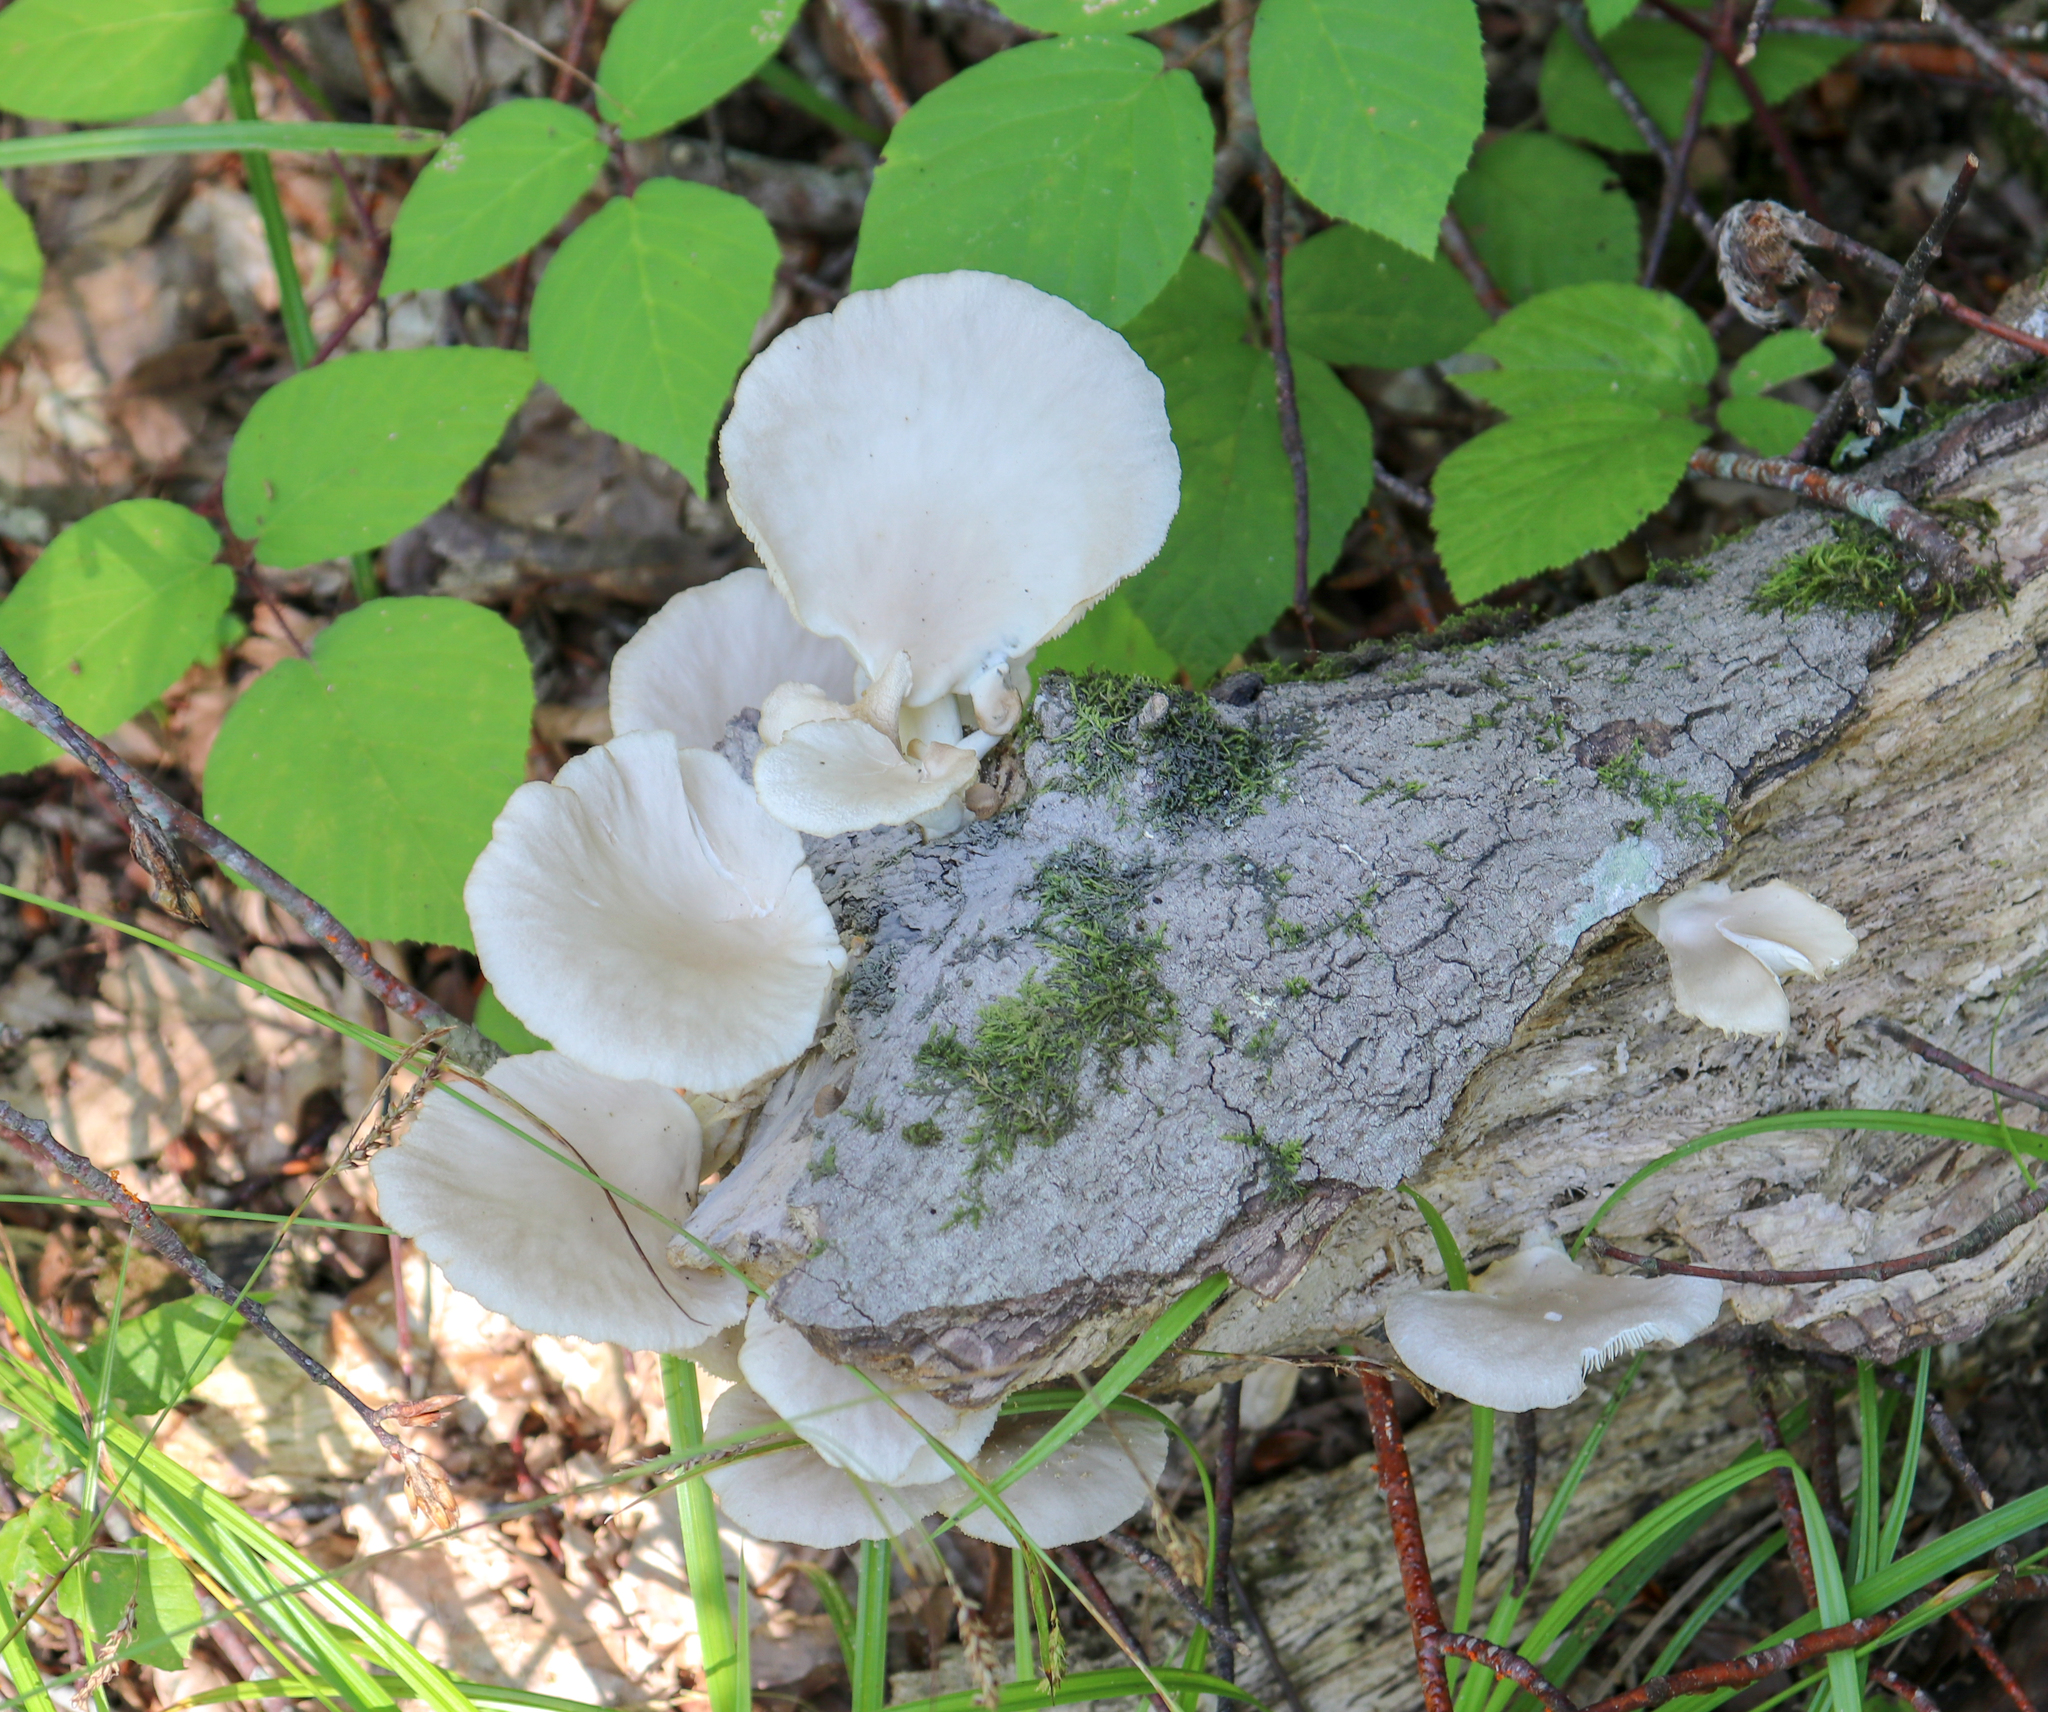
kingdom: Fungi
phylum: Basidiomycota
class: Agaricomycetes
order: Agaricales
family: Pleurotaceae
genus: Pleurotus
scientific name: Pleurotus pulmonarius
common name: Pale oyster
